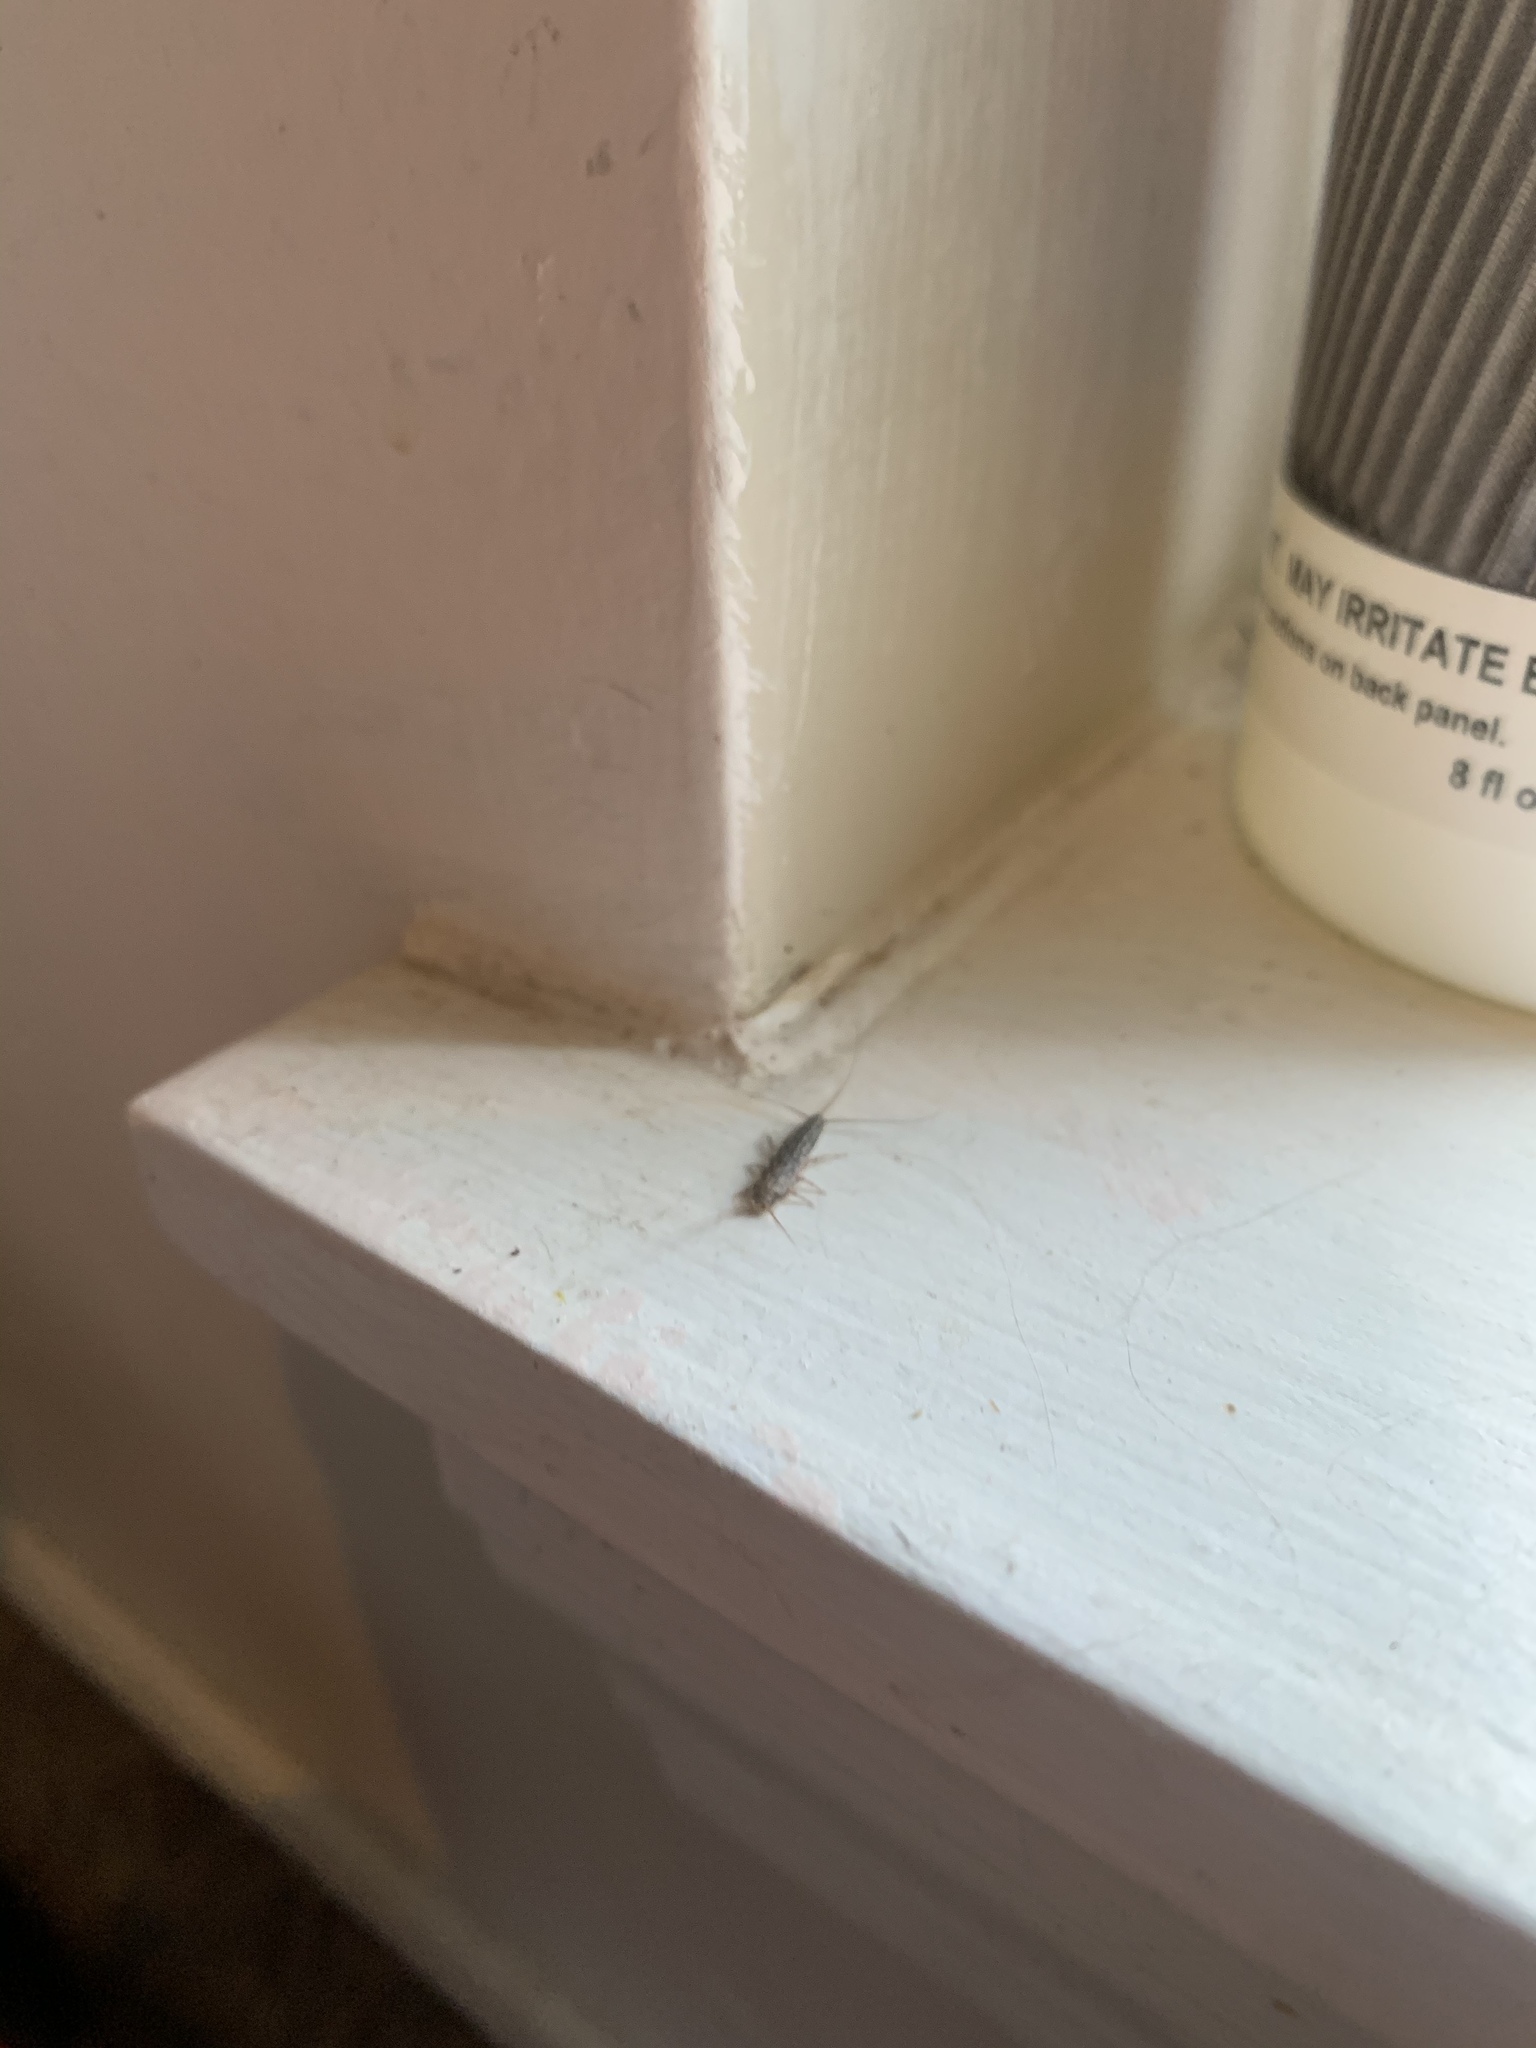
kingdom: Animalia
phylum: Arthropoda
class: Insecta
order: Zygentoma
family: Lepismatidae
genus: Ctenolepisma
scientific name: Ctenolepisma lineata
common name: Four-lined silverfish
